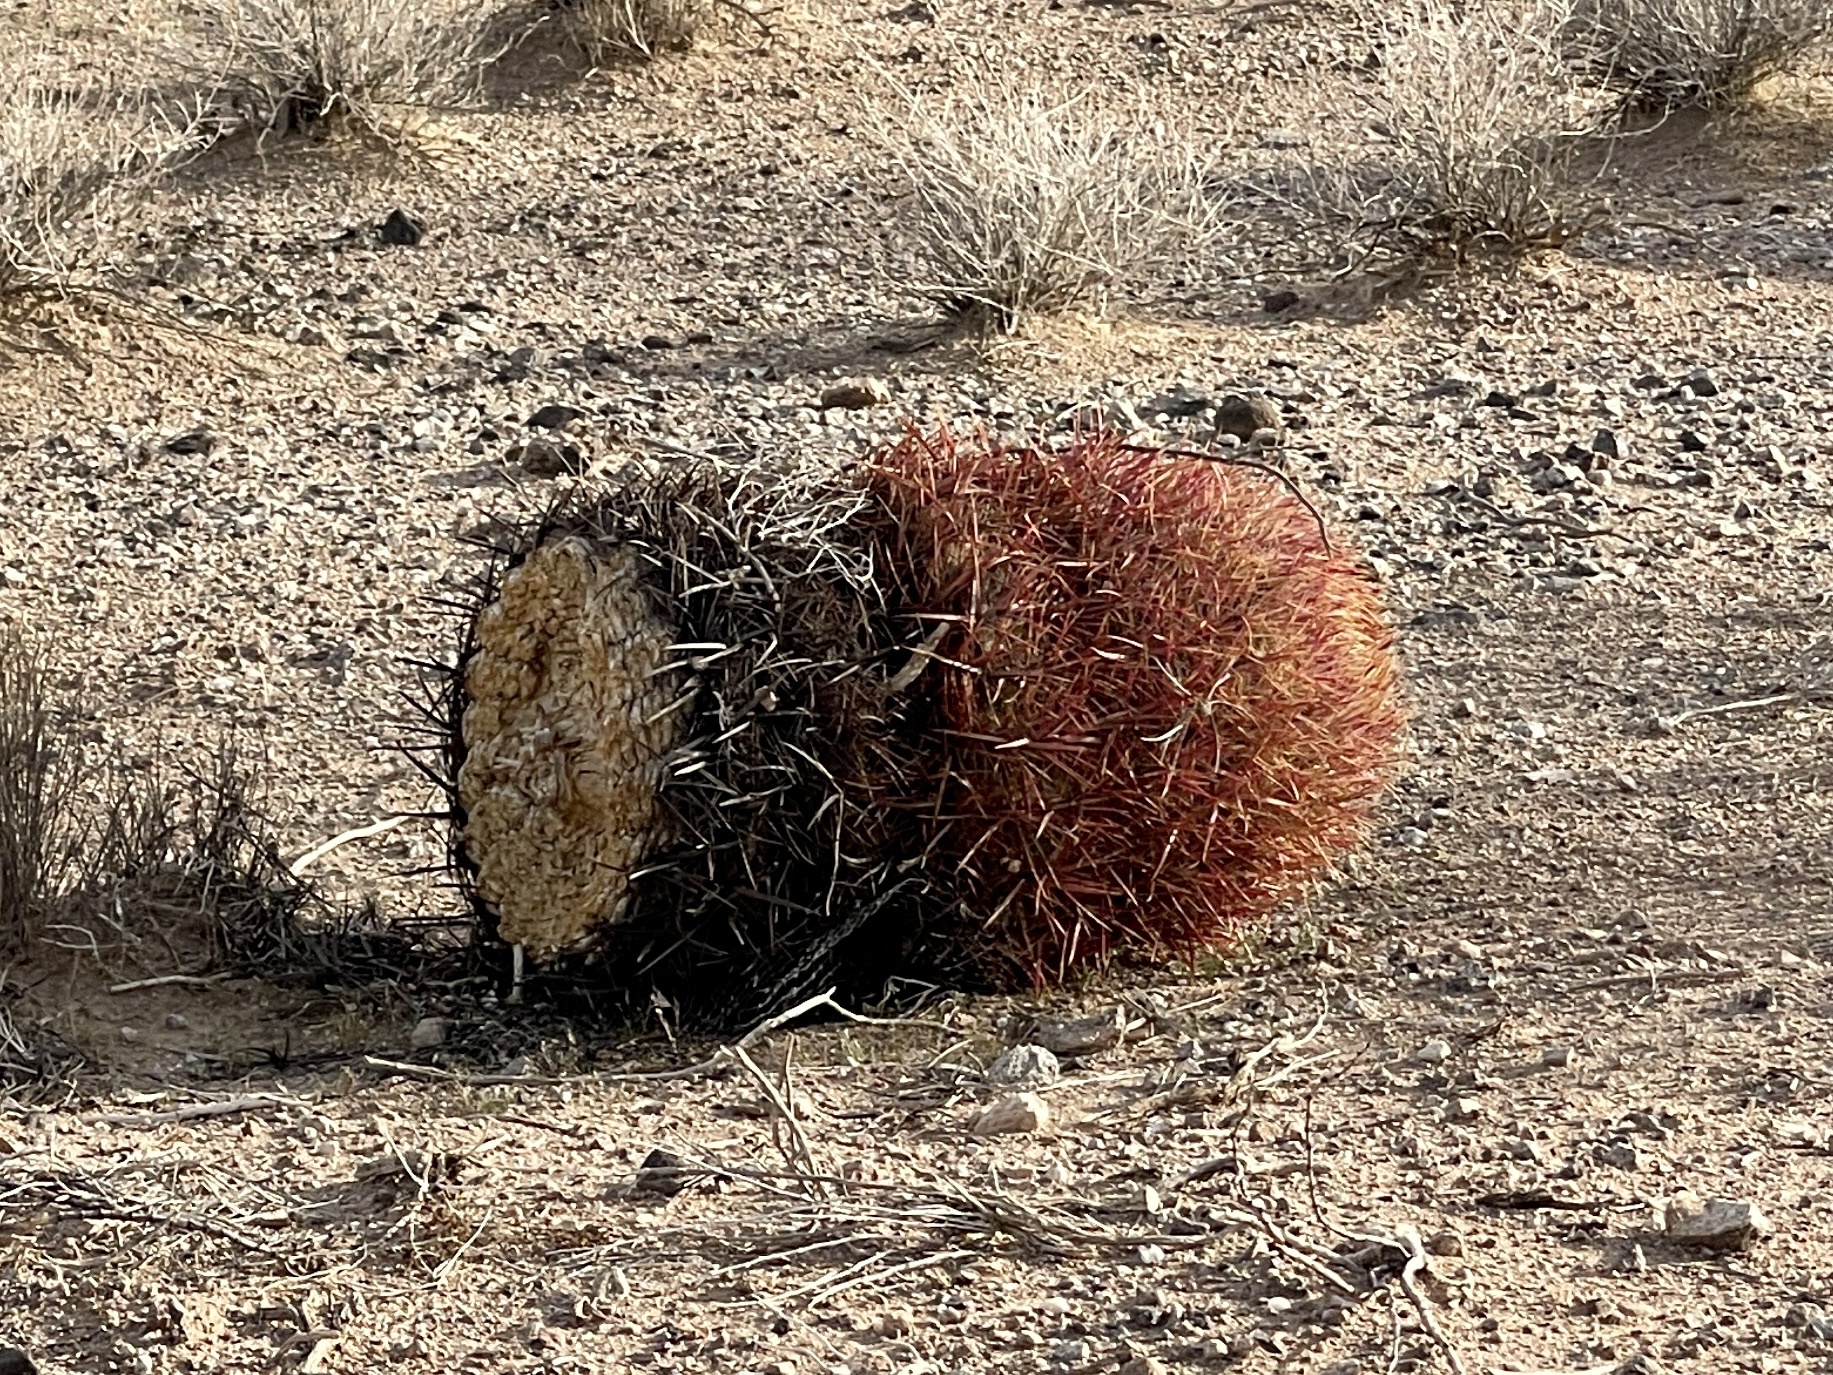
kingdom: Plantae
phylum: Tracheophyta
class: Magnoliopsida
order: Caryophyllales
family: Cactaceae
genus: Ferocactus
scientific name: Ferocactus cylindraceus
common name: California barrel cactus
